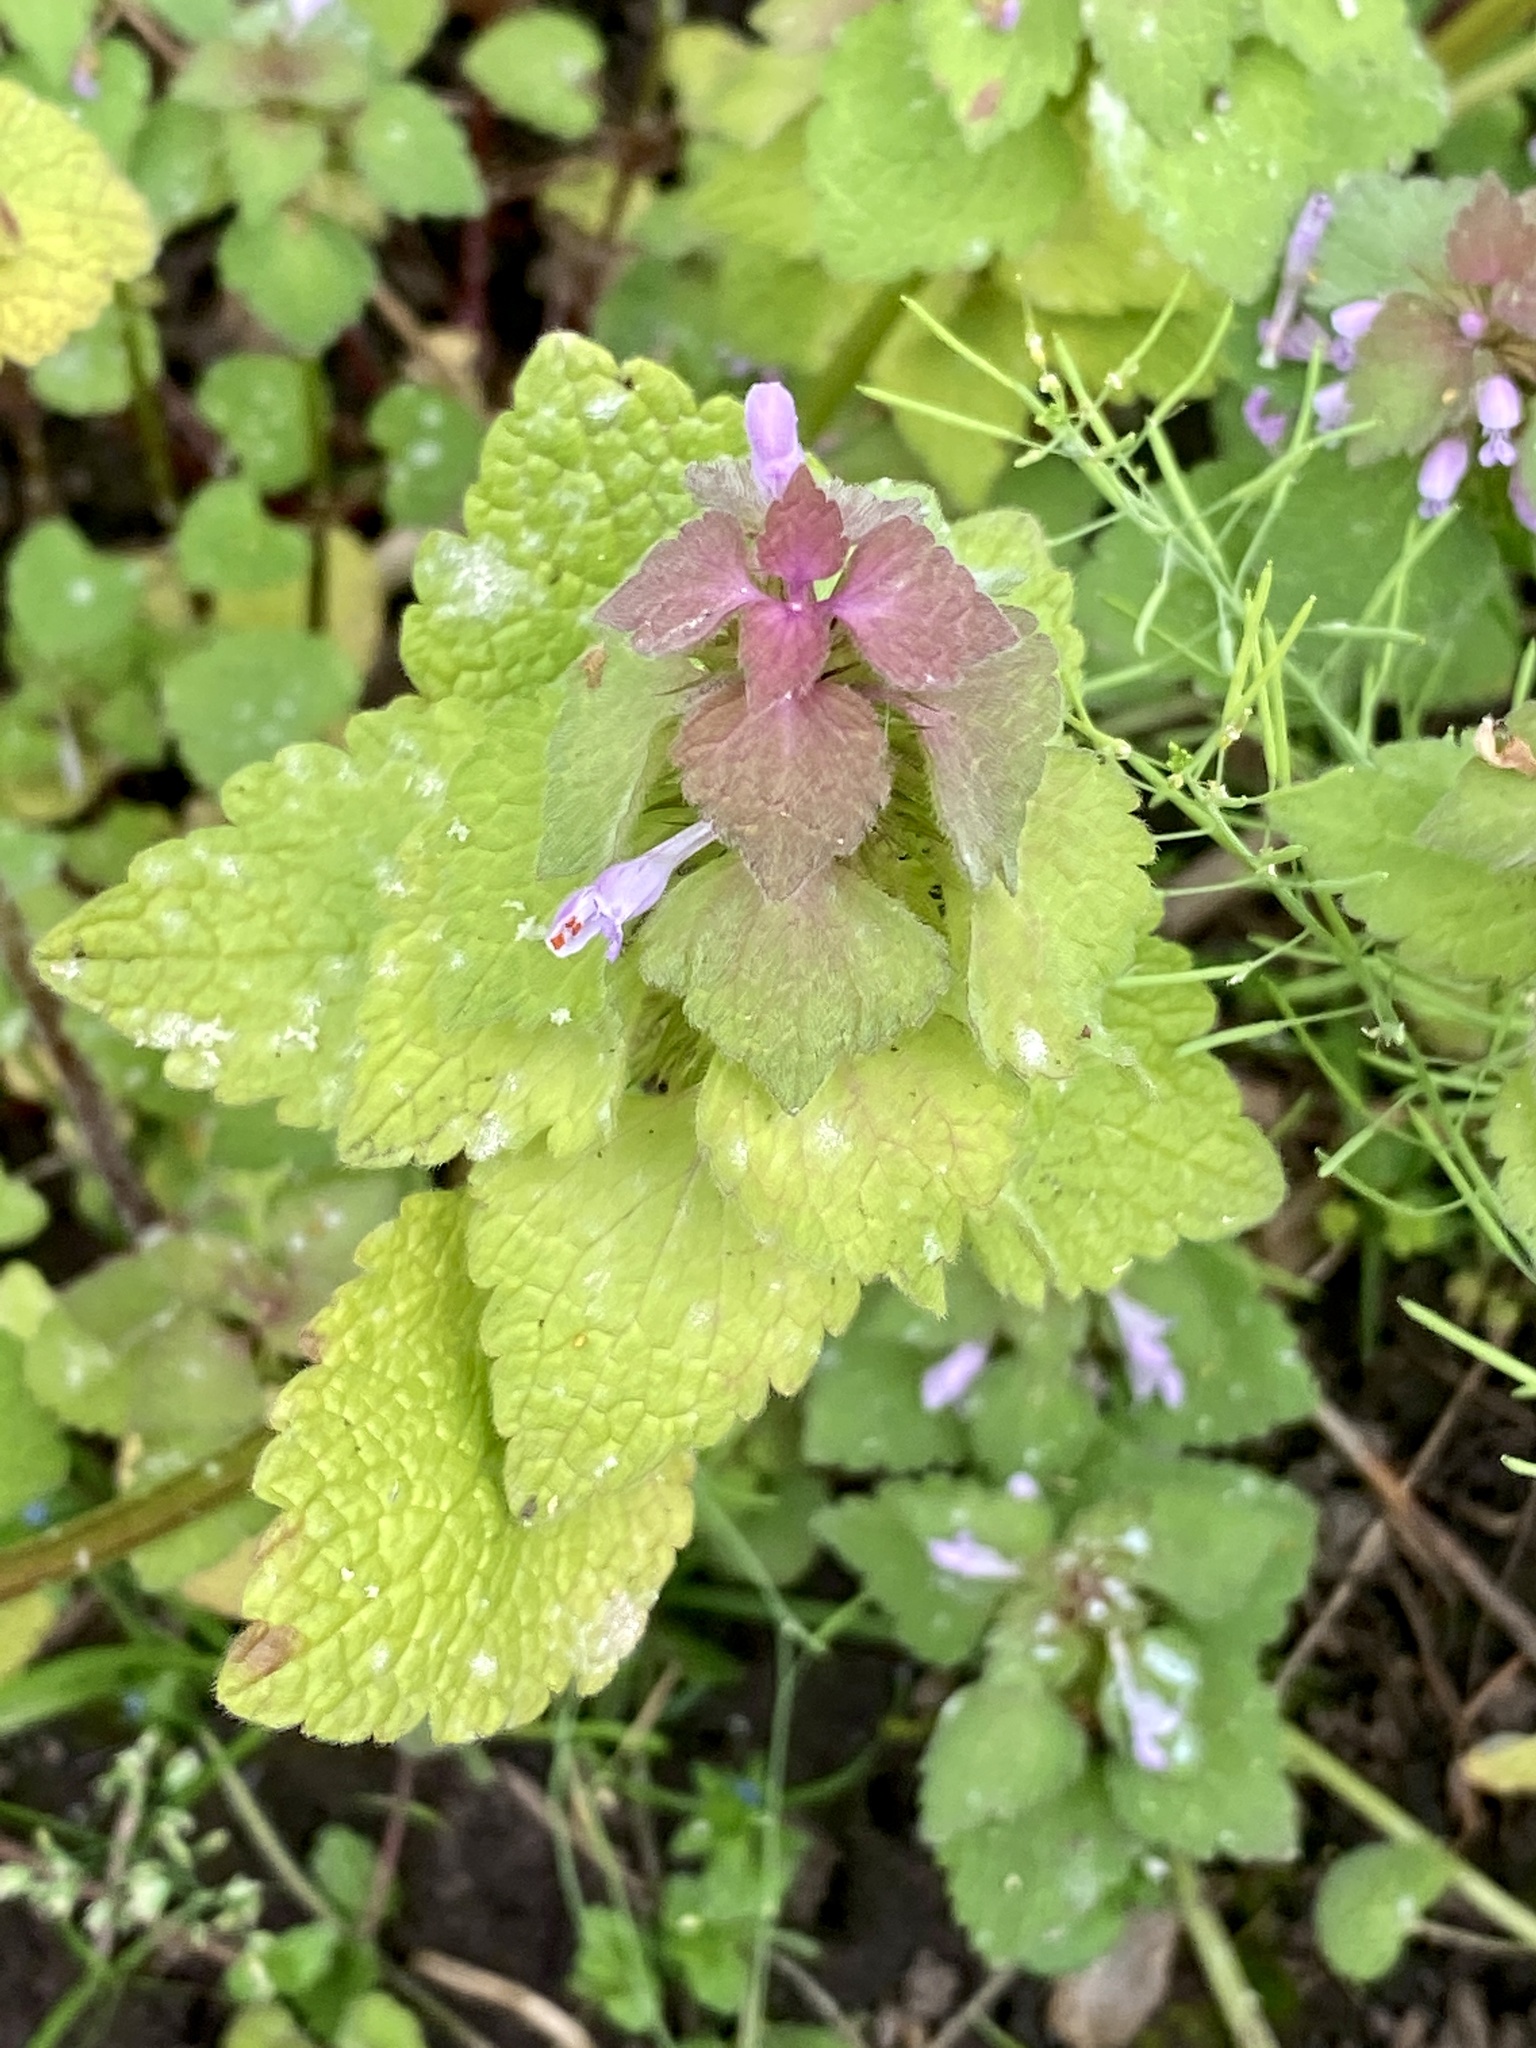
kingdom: Plantae
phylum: Tracheophyta
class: Magnoliopsida
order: Lamiales
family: Lamiaceae
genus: Lamium
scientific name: Lamium purpureum
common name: Red dead-nettle
